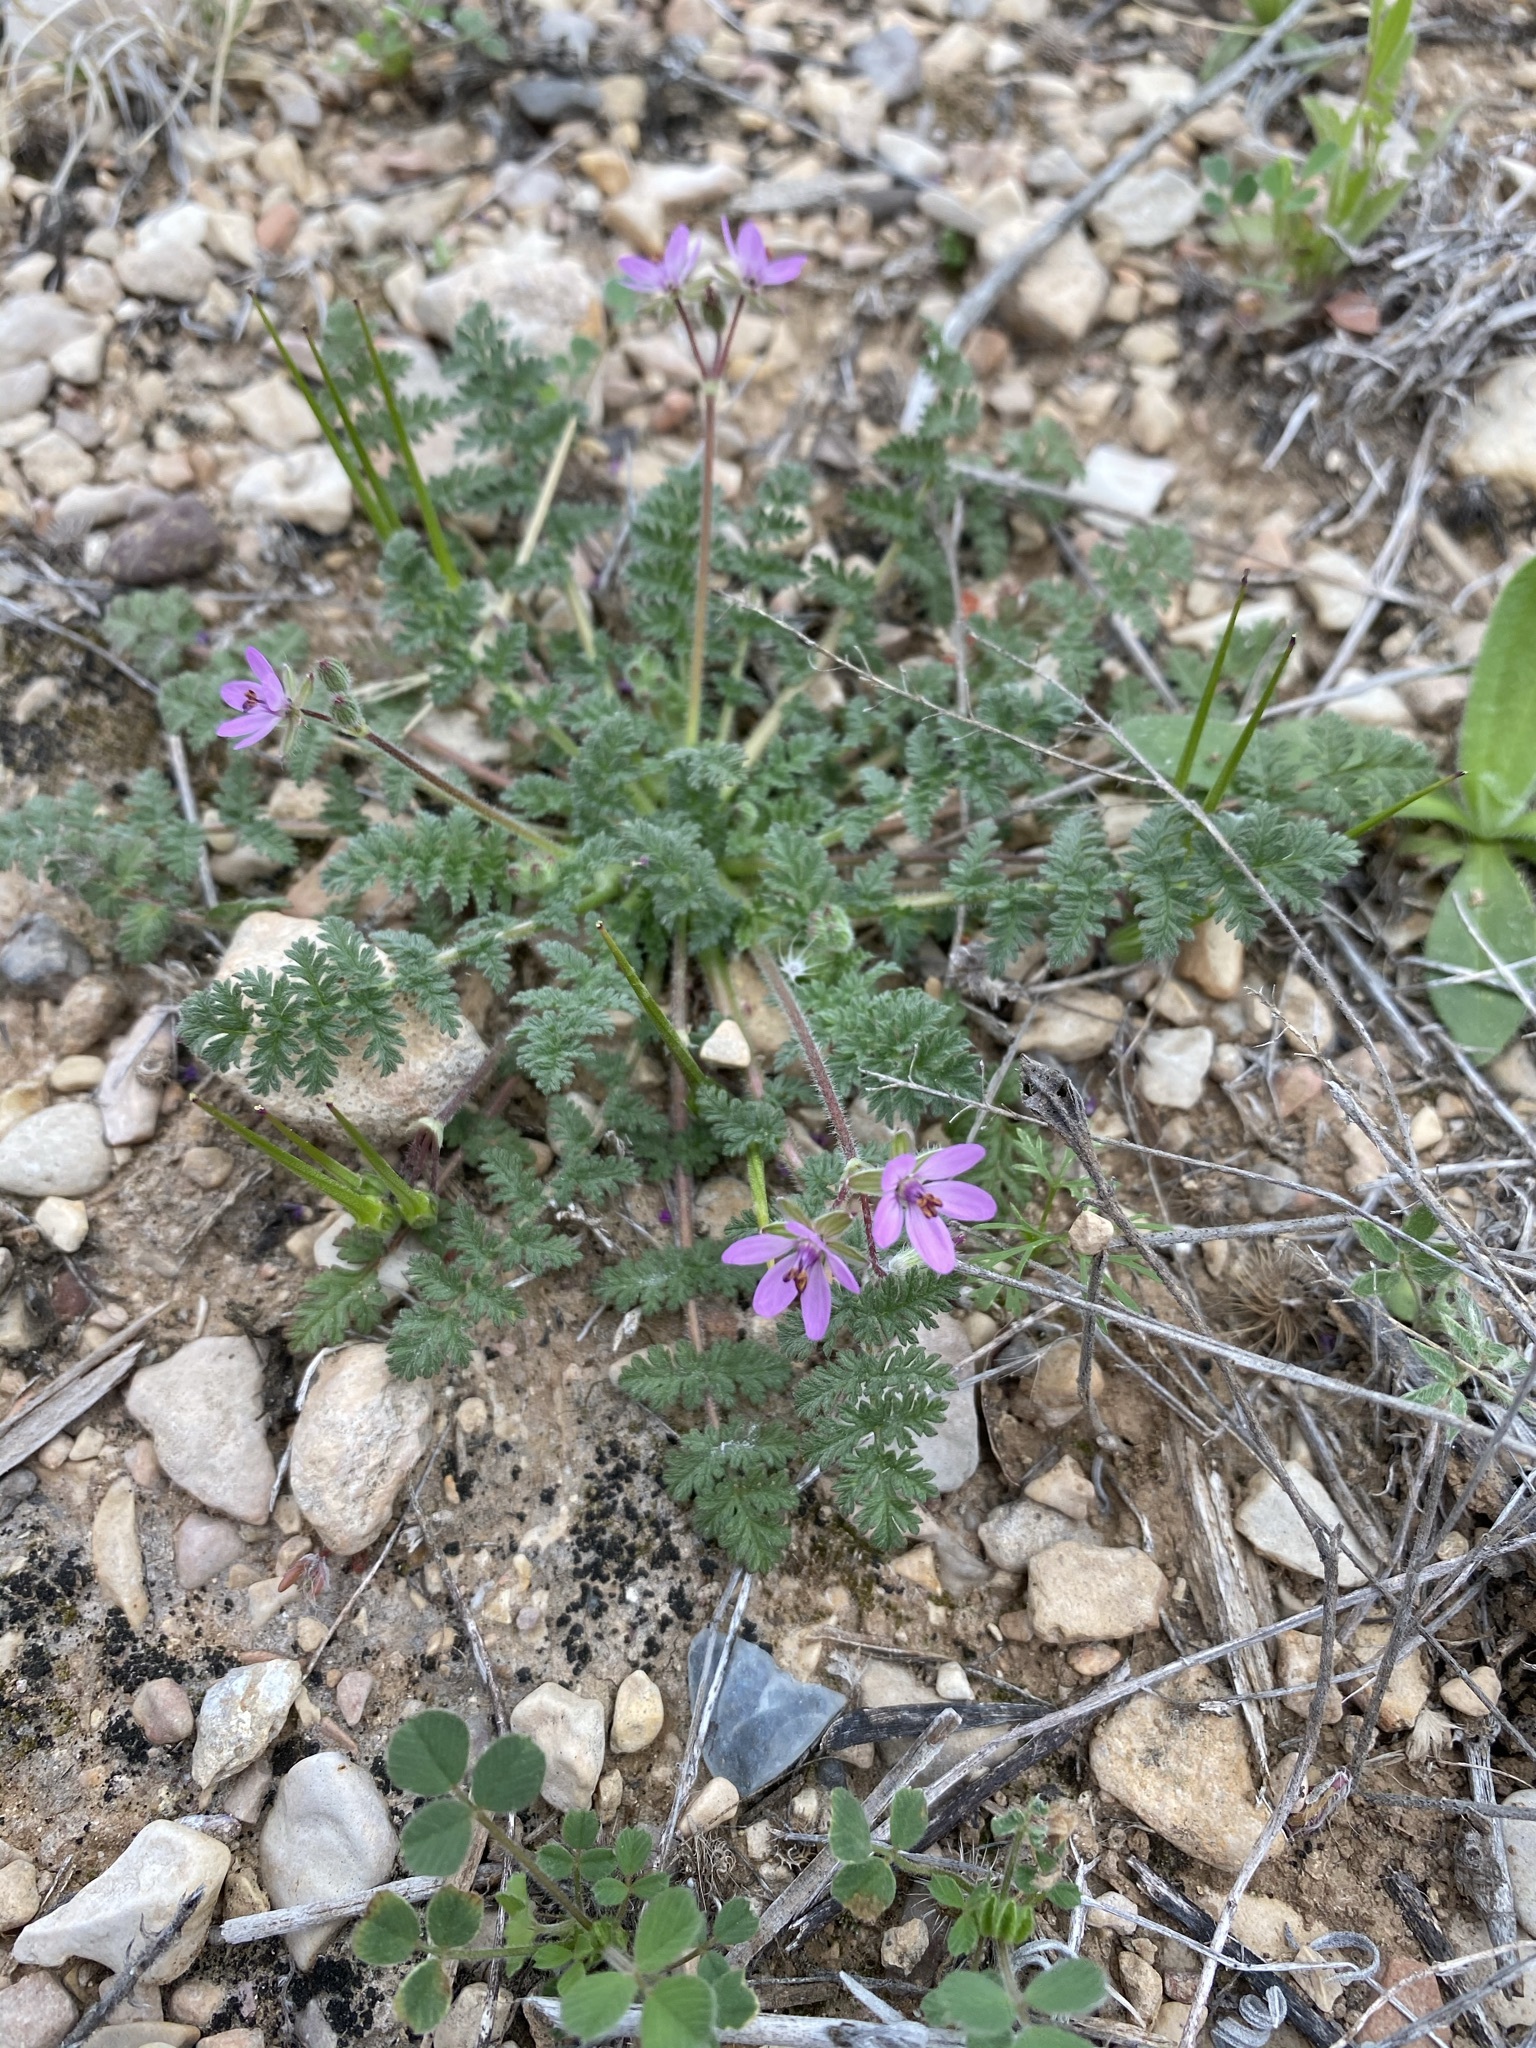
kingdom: Plantae
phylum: Tracheophyta
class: Magnoliopsida
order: Geraniales
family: Geraniaceae
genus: Erodium
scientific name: Erodium cicutarium
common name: Common stork's-bill
